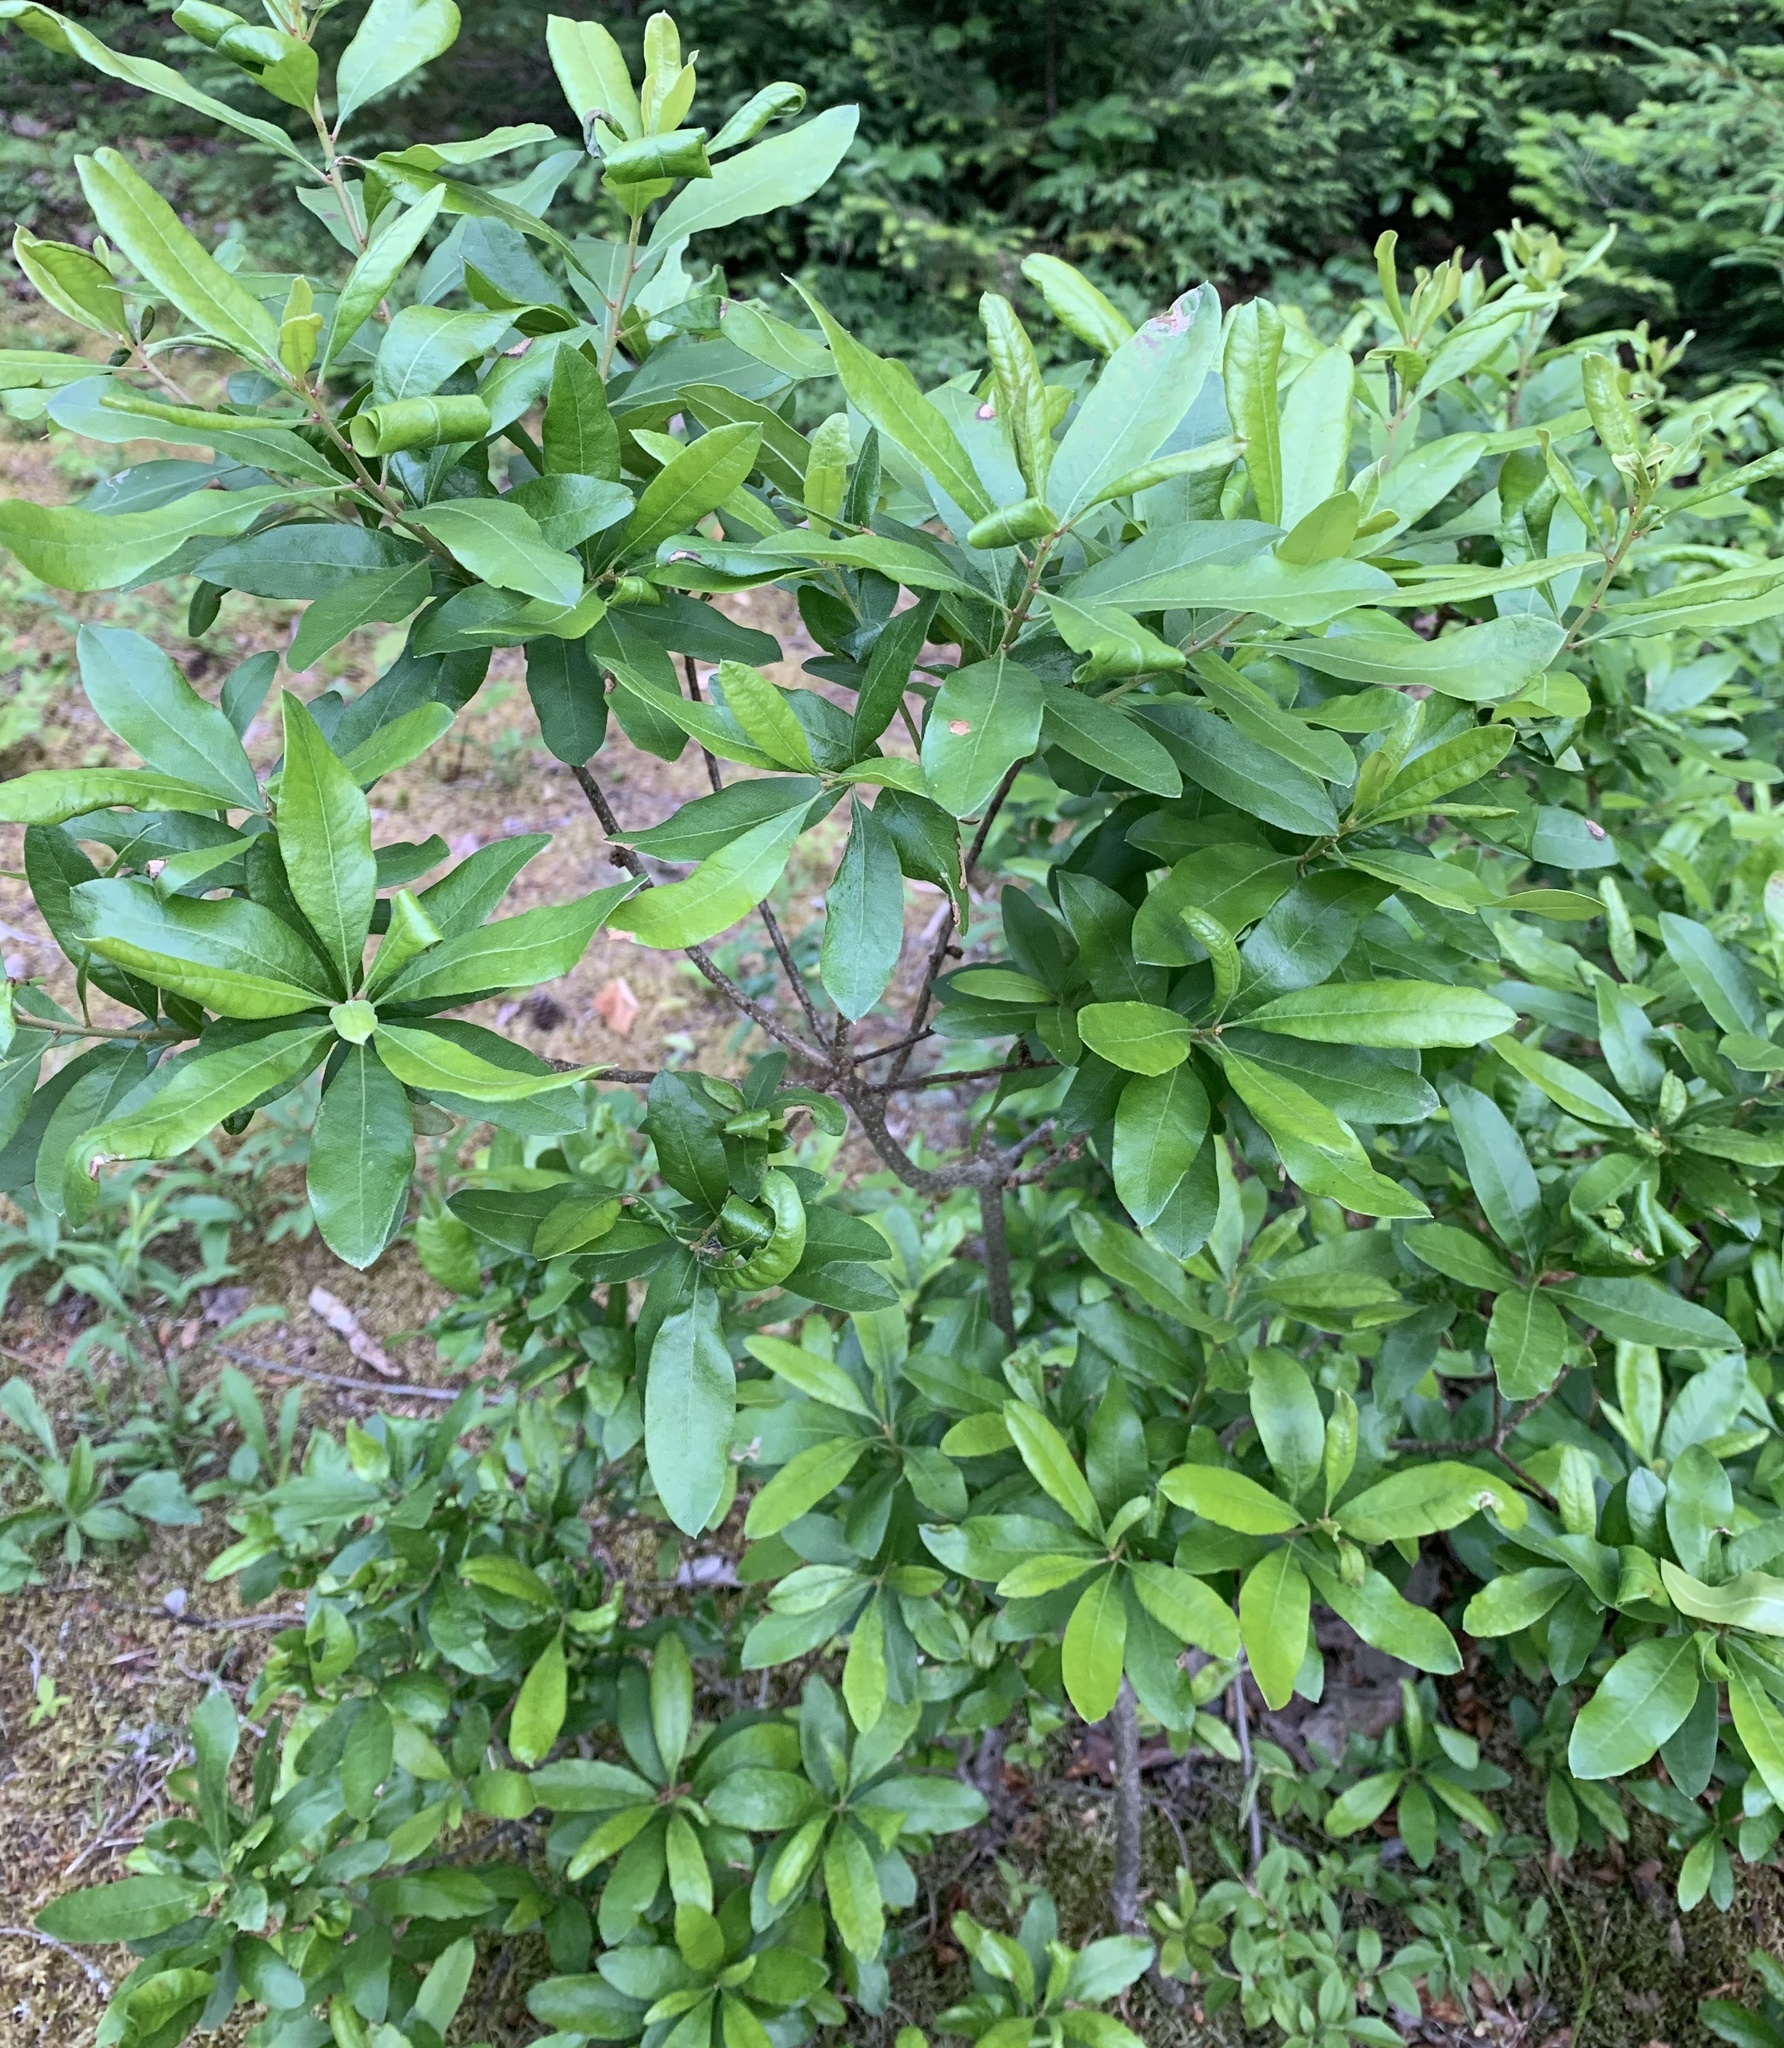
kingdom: Plantae
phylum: Tracheophyta
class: Magnoliopsida
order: Fagales
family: Myricaceae
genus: Morella
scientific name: Morella pensylvanica
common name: Northern bayberry
